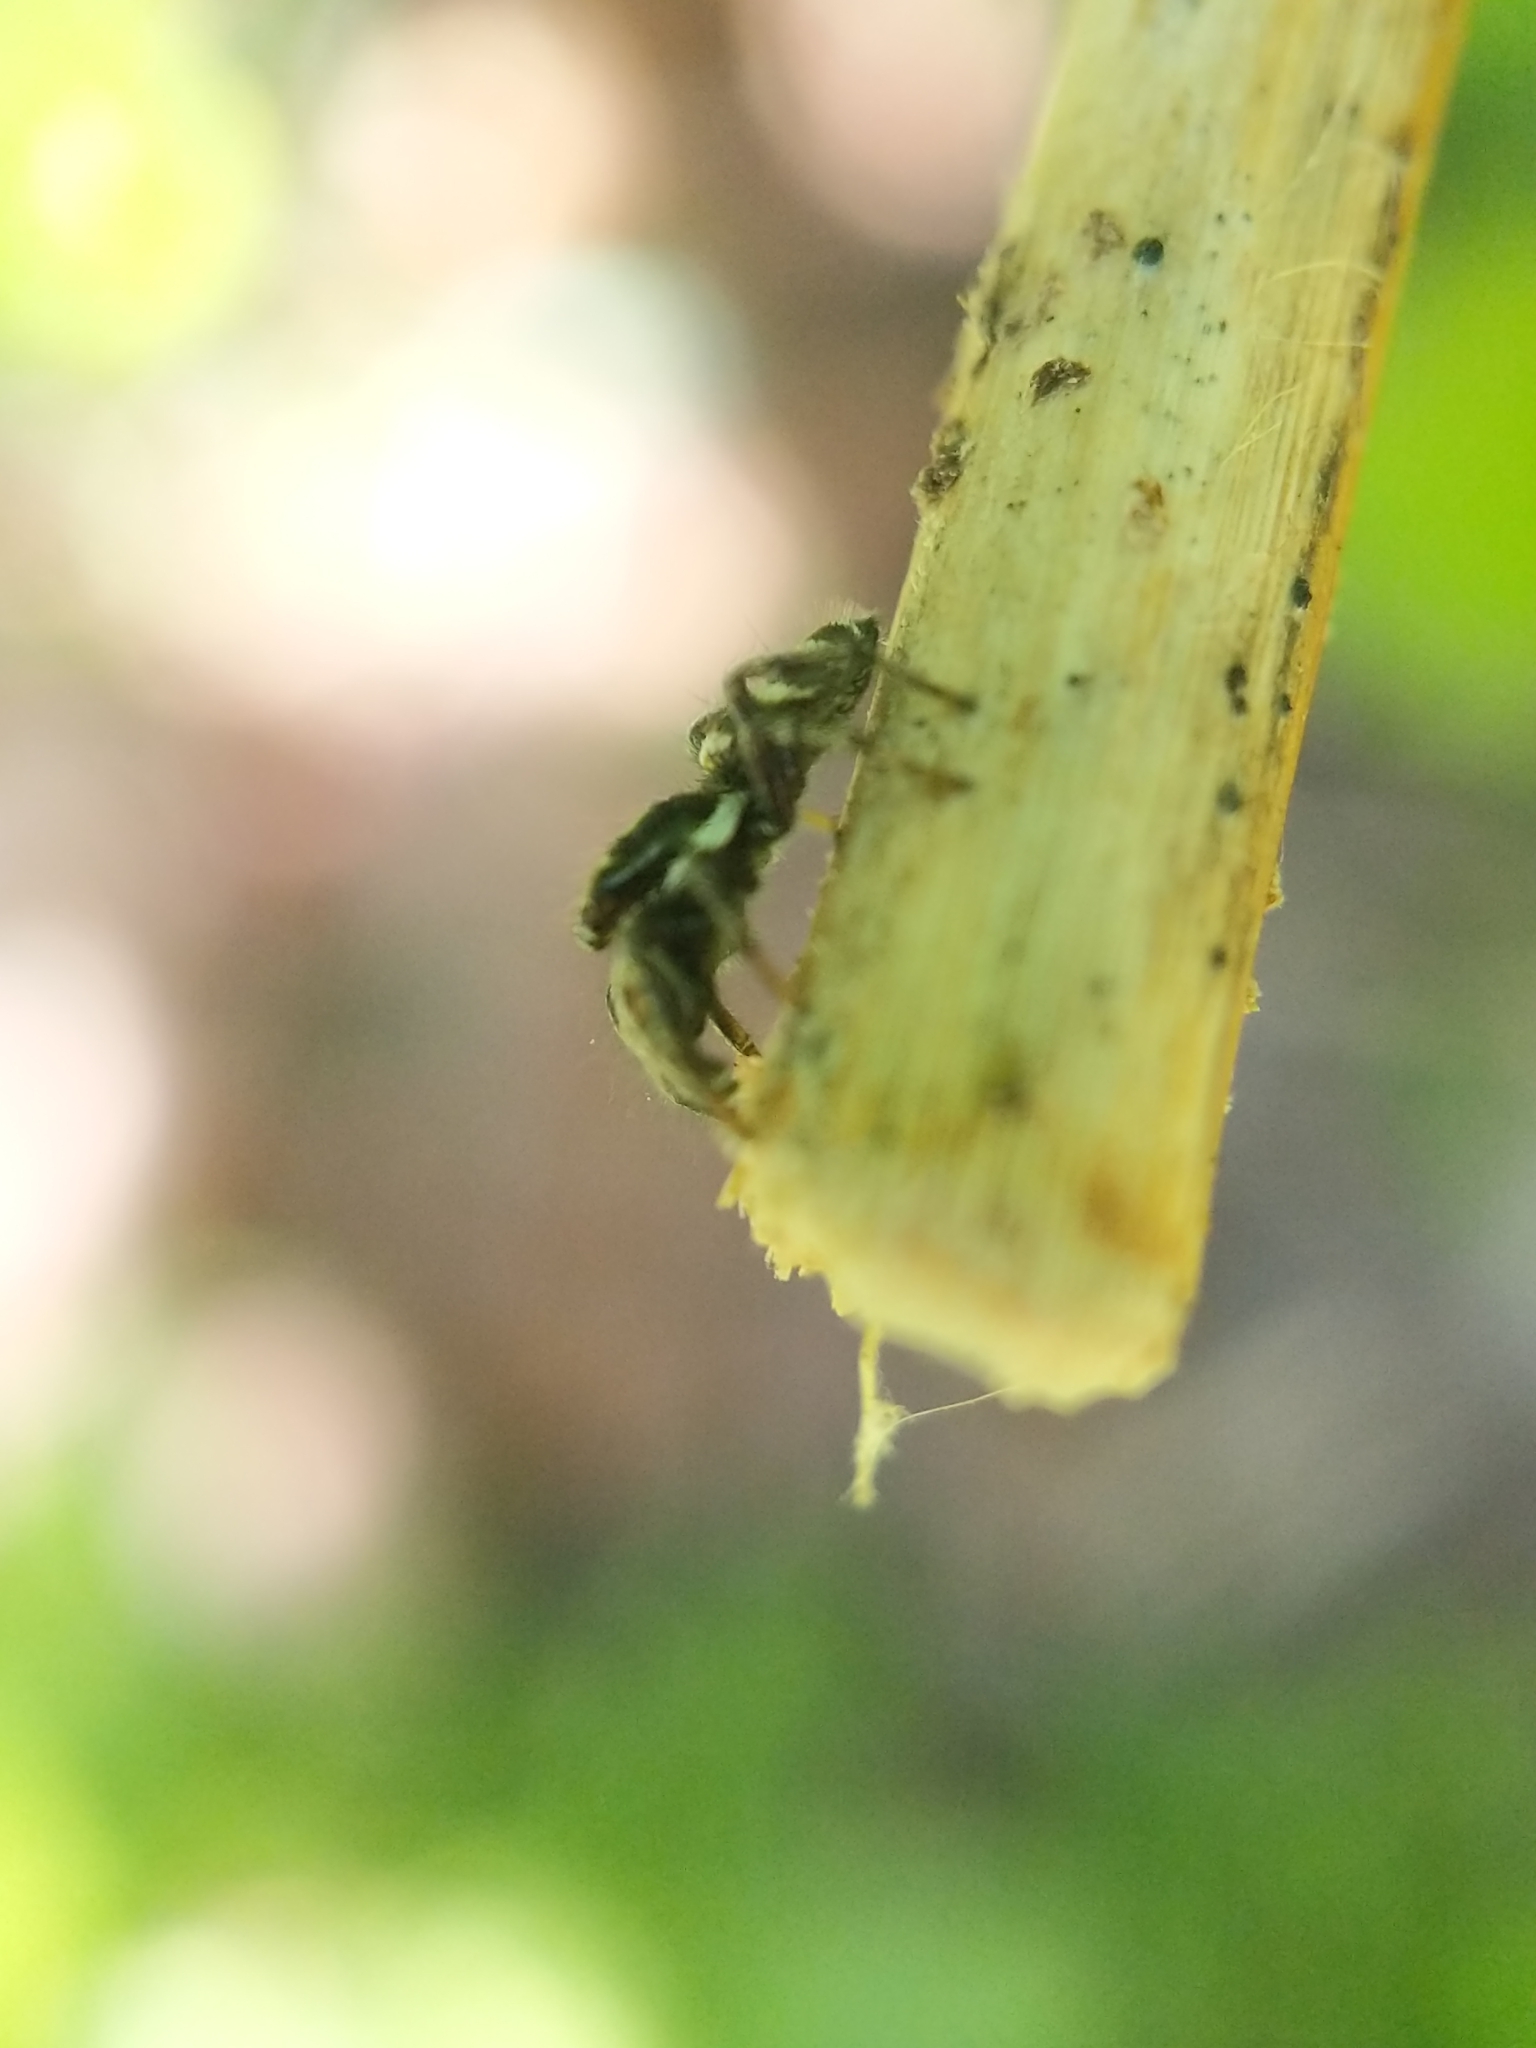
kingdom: Animalia
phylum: Arthropoda
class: Arachnida
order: Araneae
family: Salticidae
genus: Salticus
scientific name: Salticus scenicus
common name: Zebra jumper
